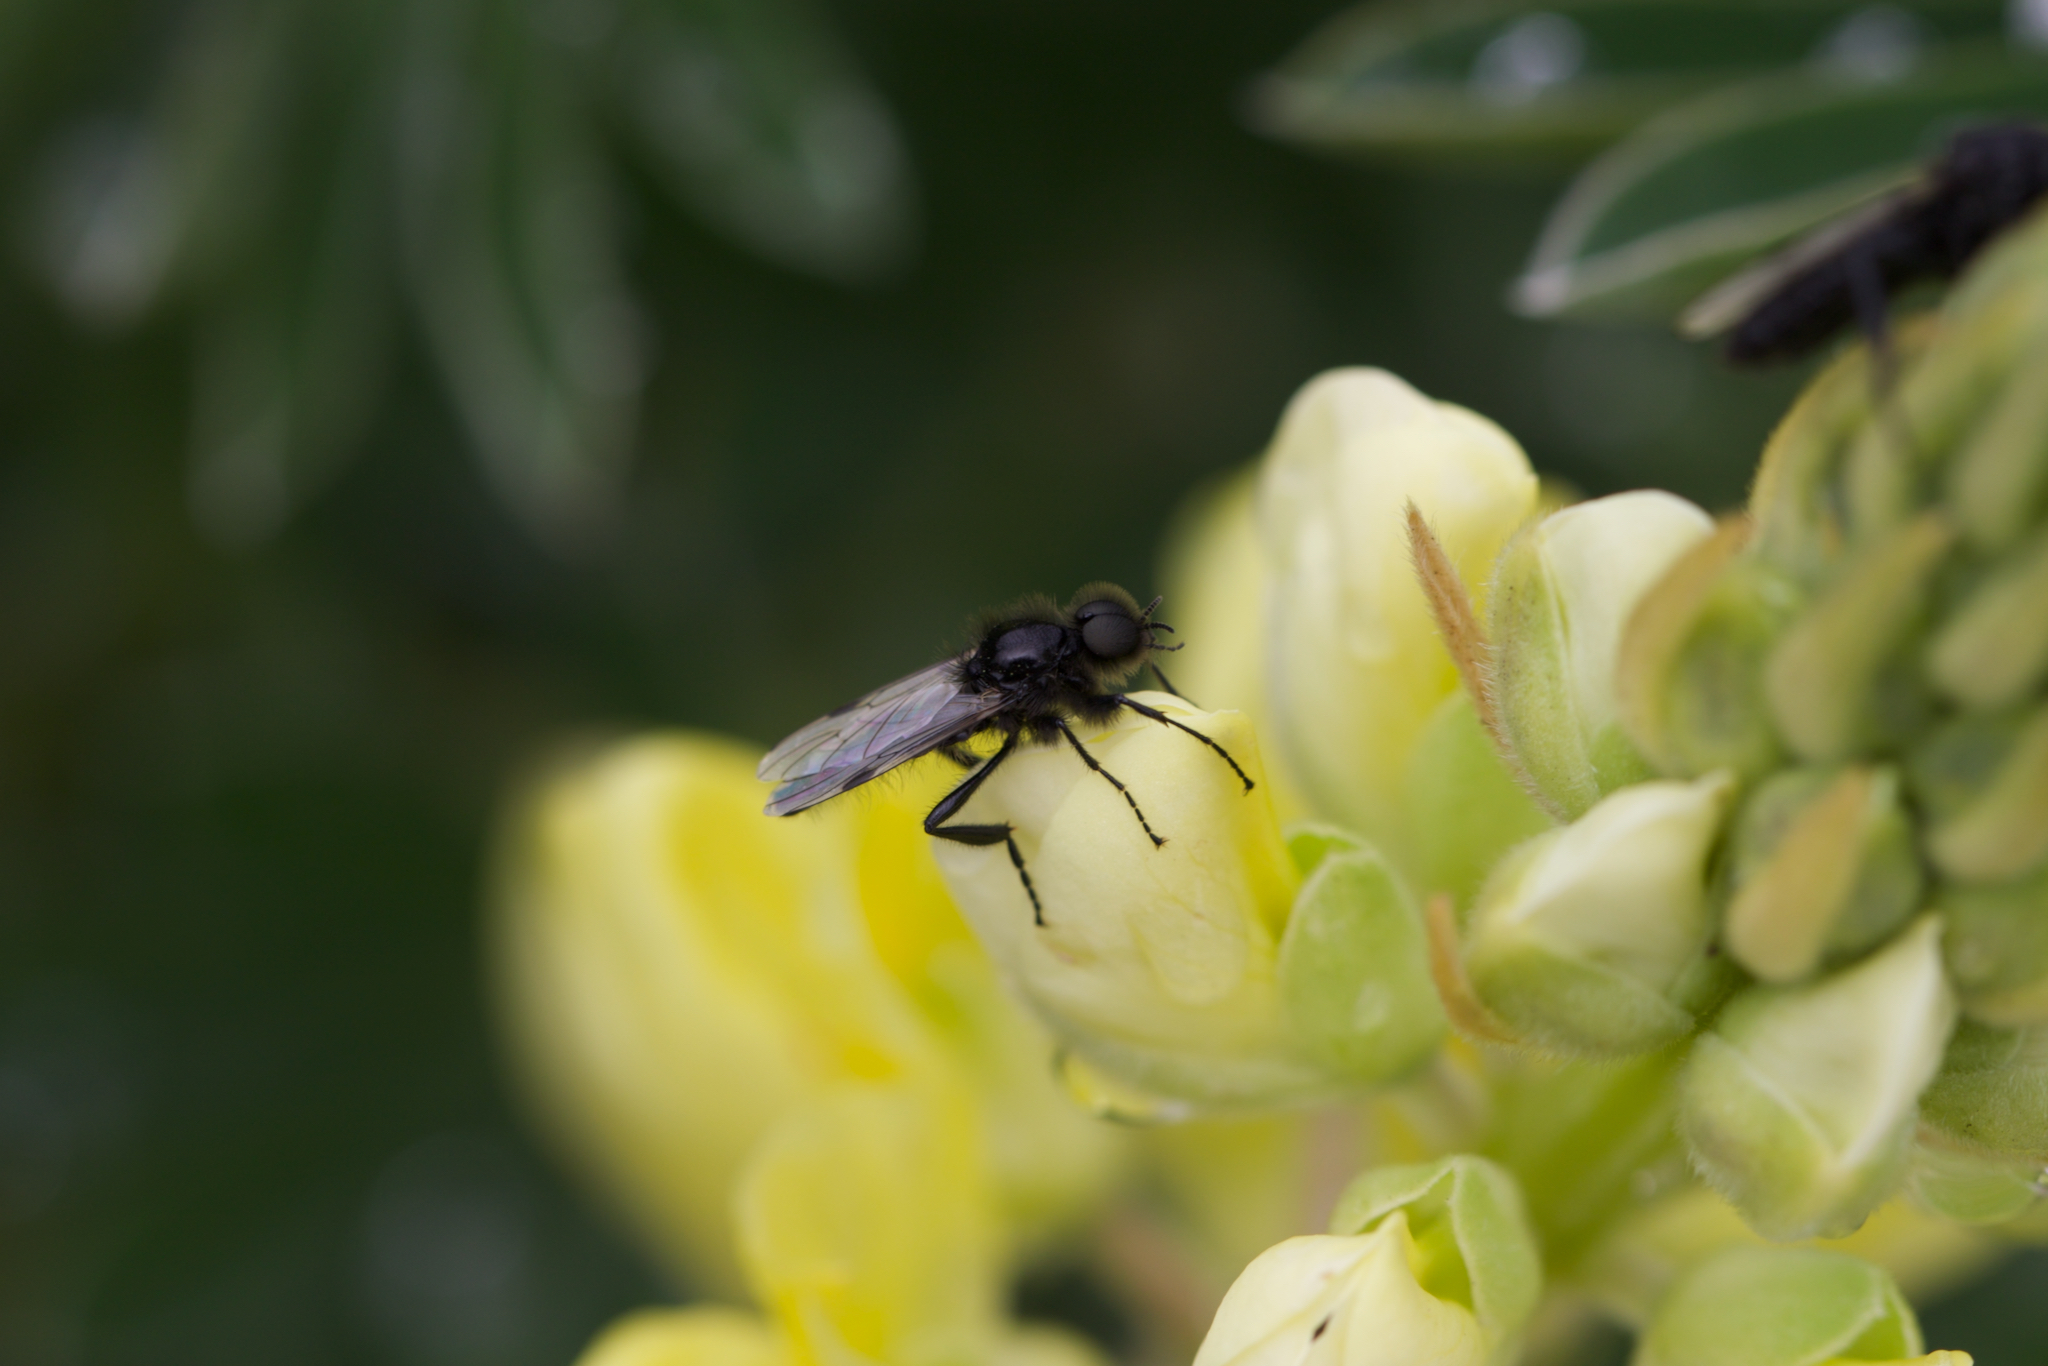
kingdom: Animalia
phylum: Arthropoda
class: Insecta
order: Diptera
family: Bibionidae
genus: Bibio
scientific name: Bibio necotus
